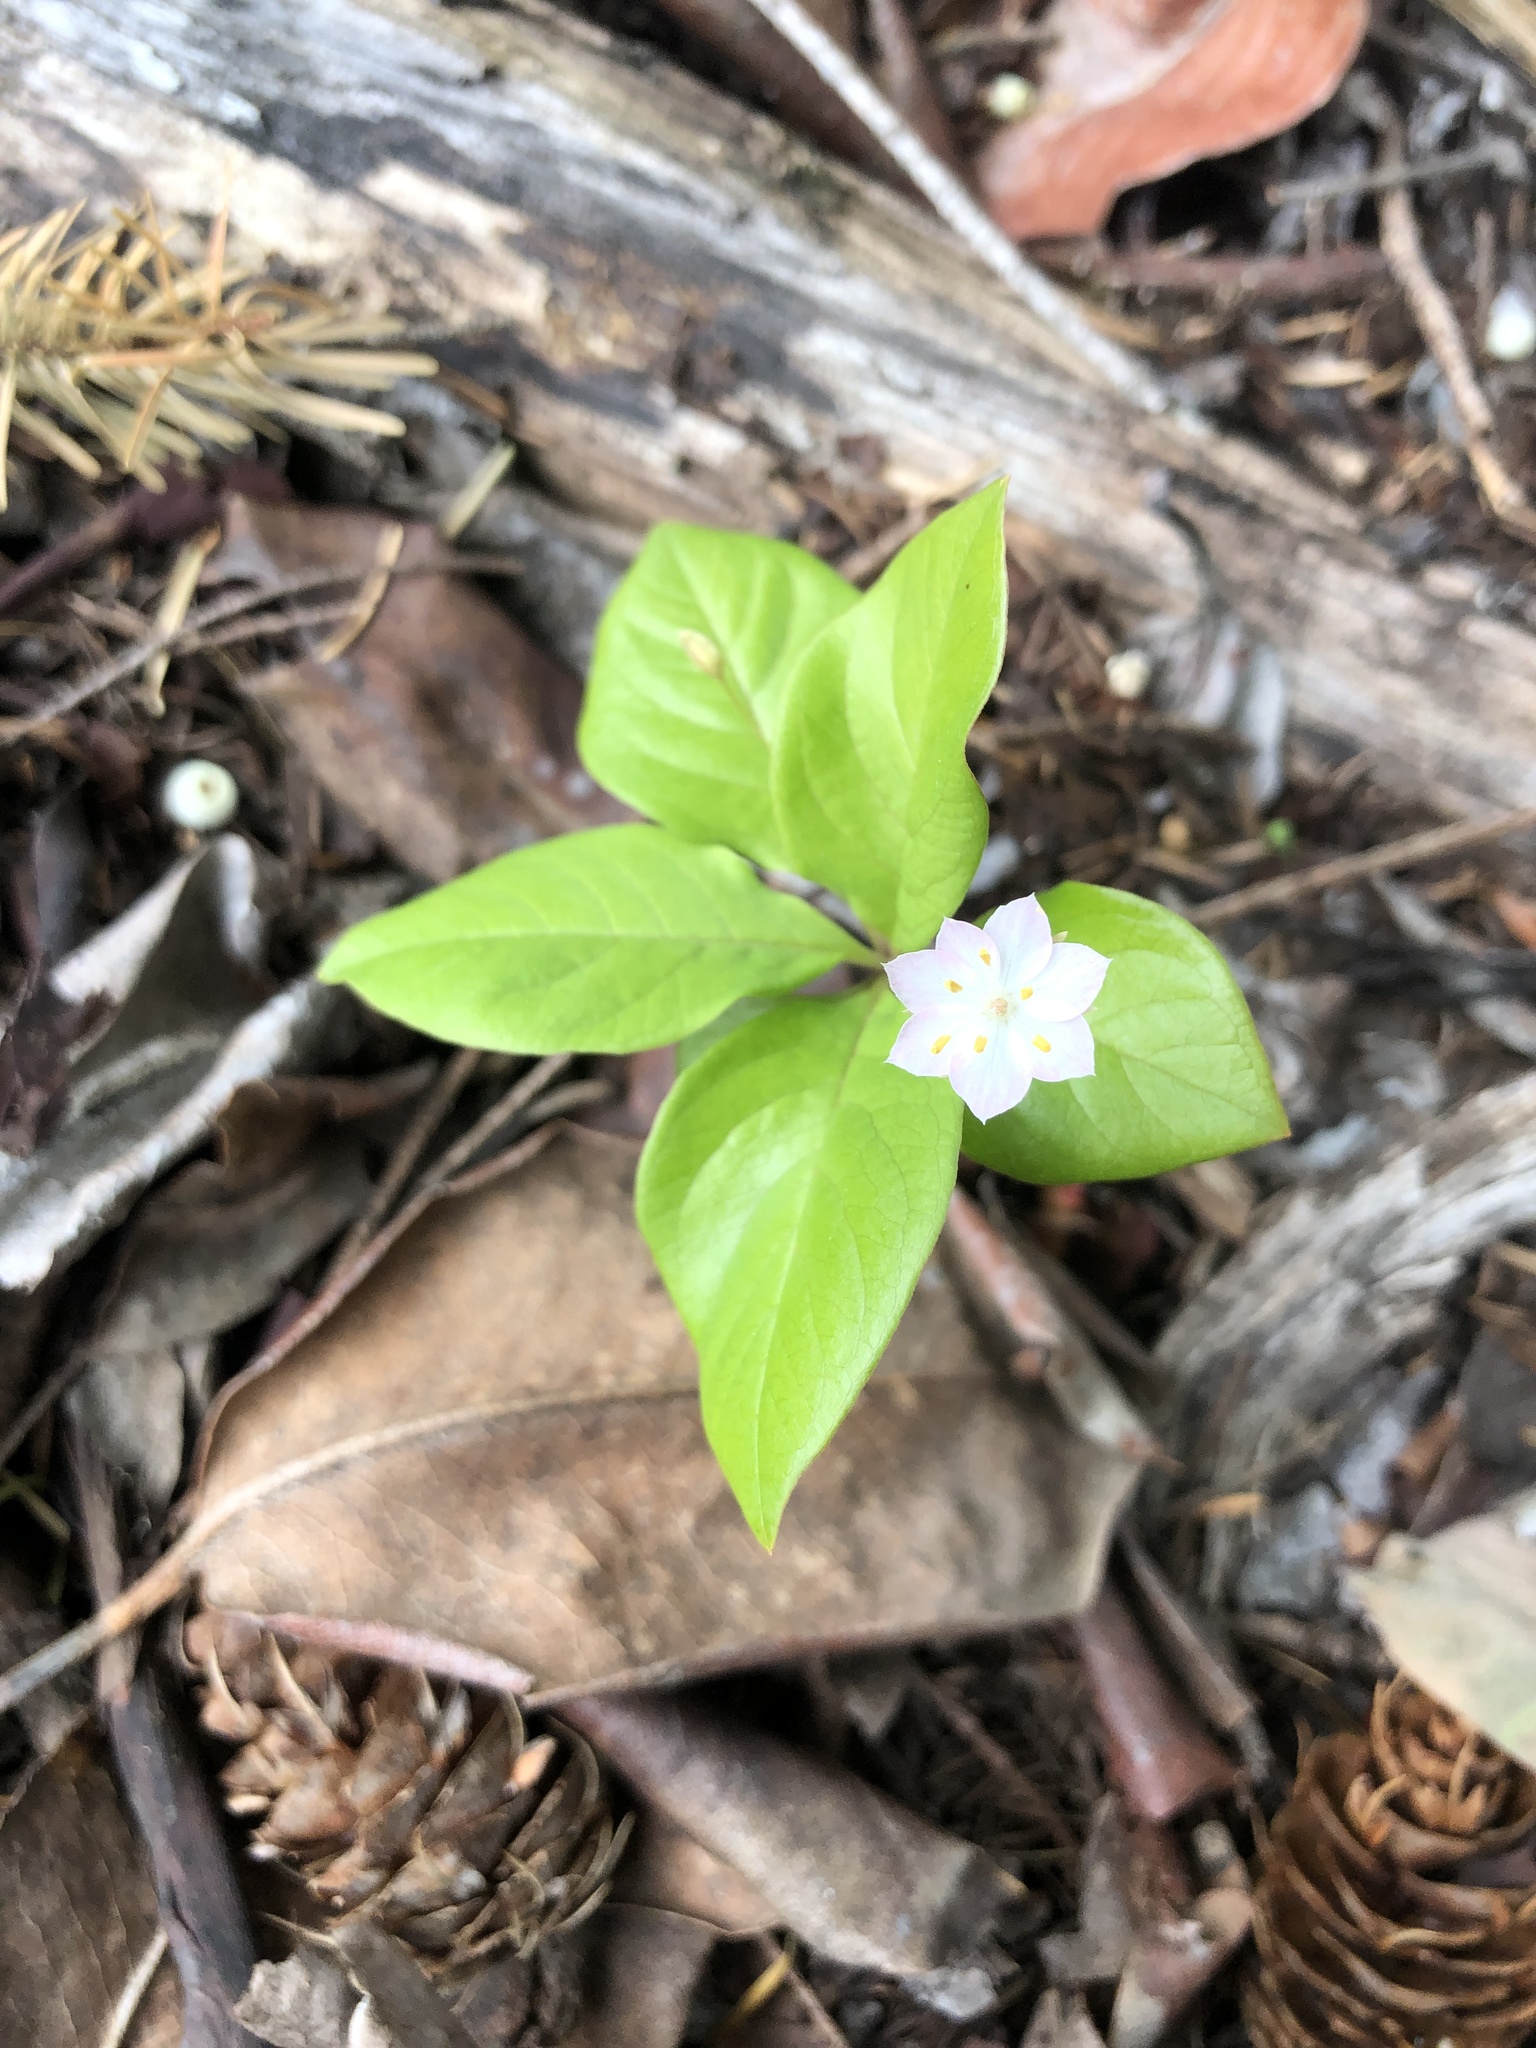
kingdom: Plantae
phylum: Tracheophyta
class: Magnoliopsida
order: Ericales
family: Primulaceae
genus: Lysimachia
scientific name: Lysimachia europaea
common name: Arctic starflower
